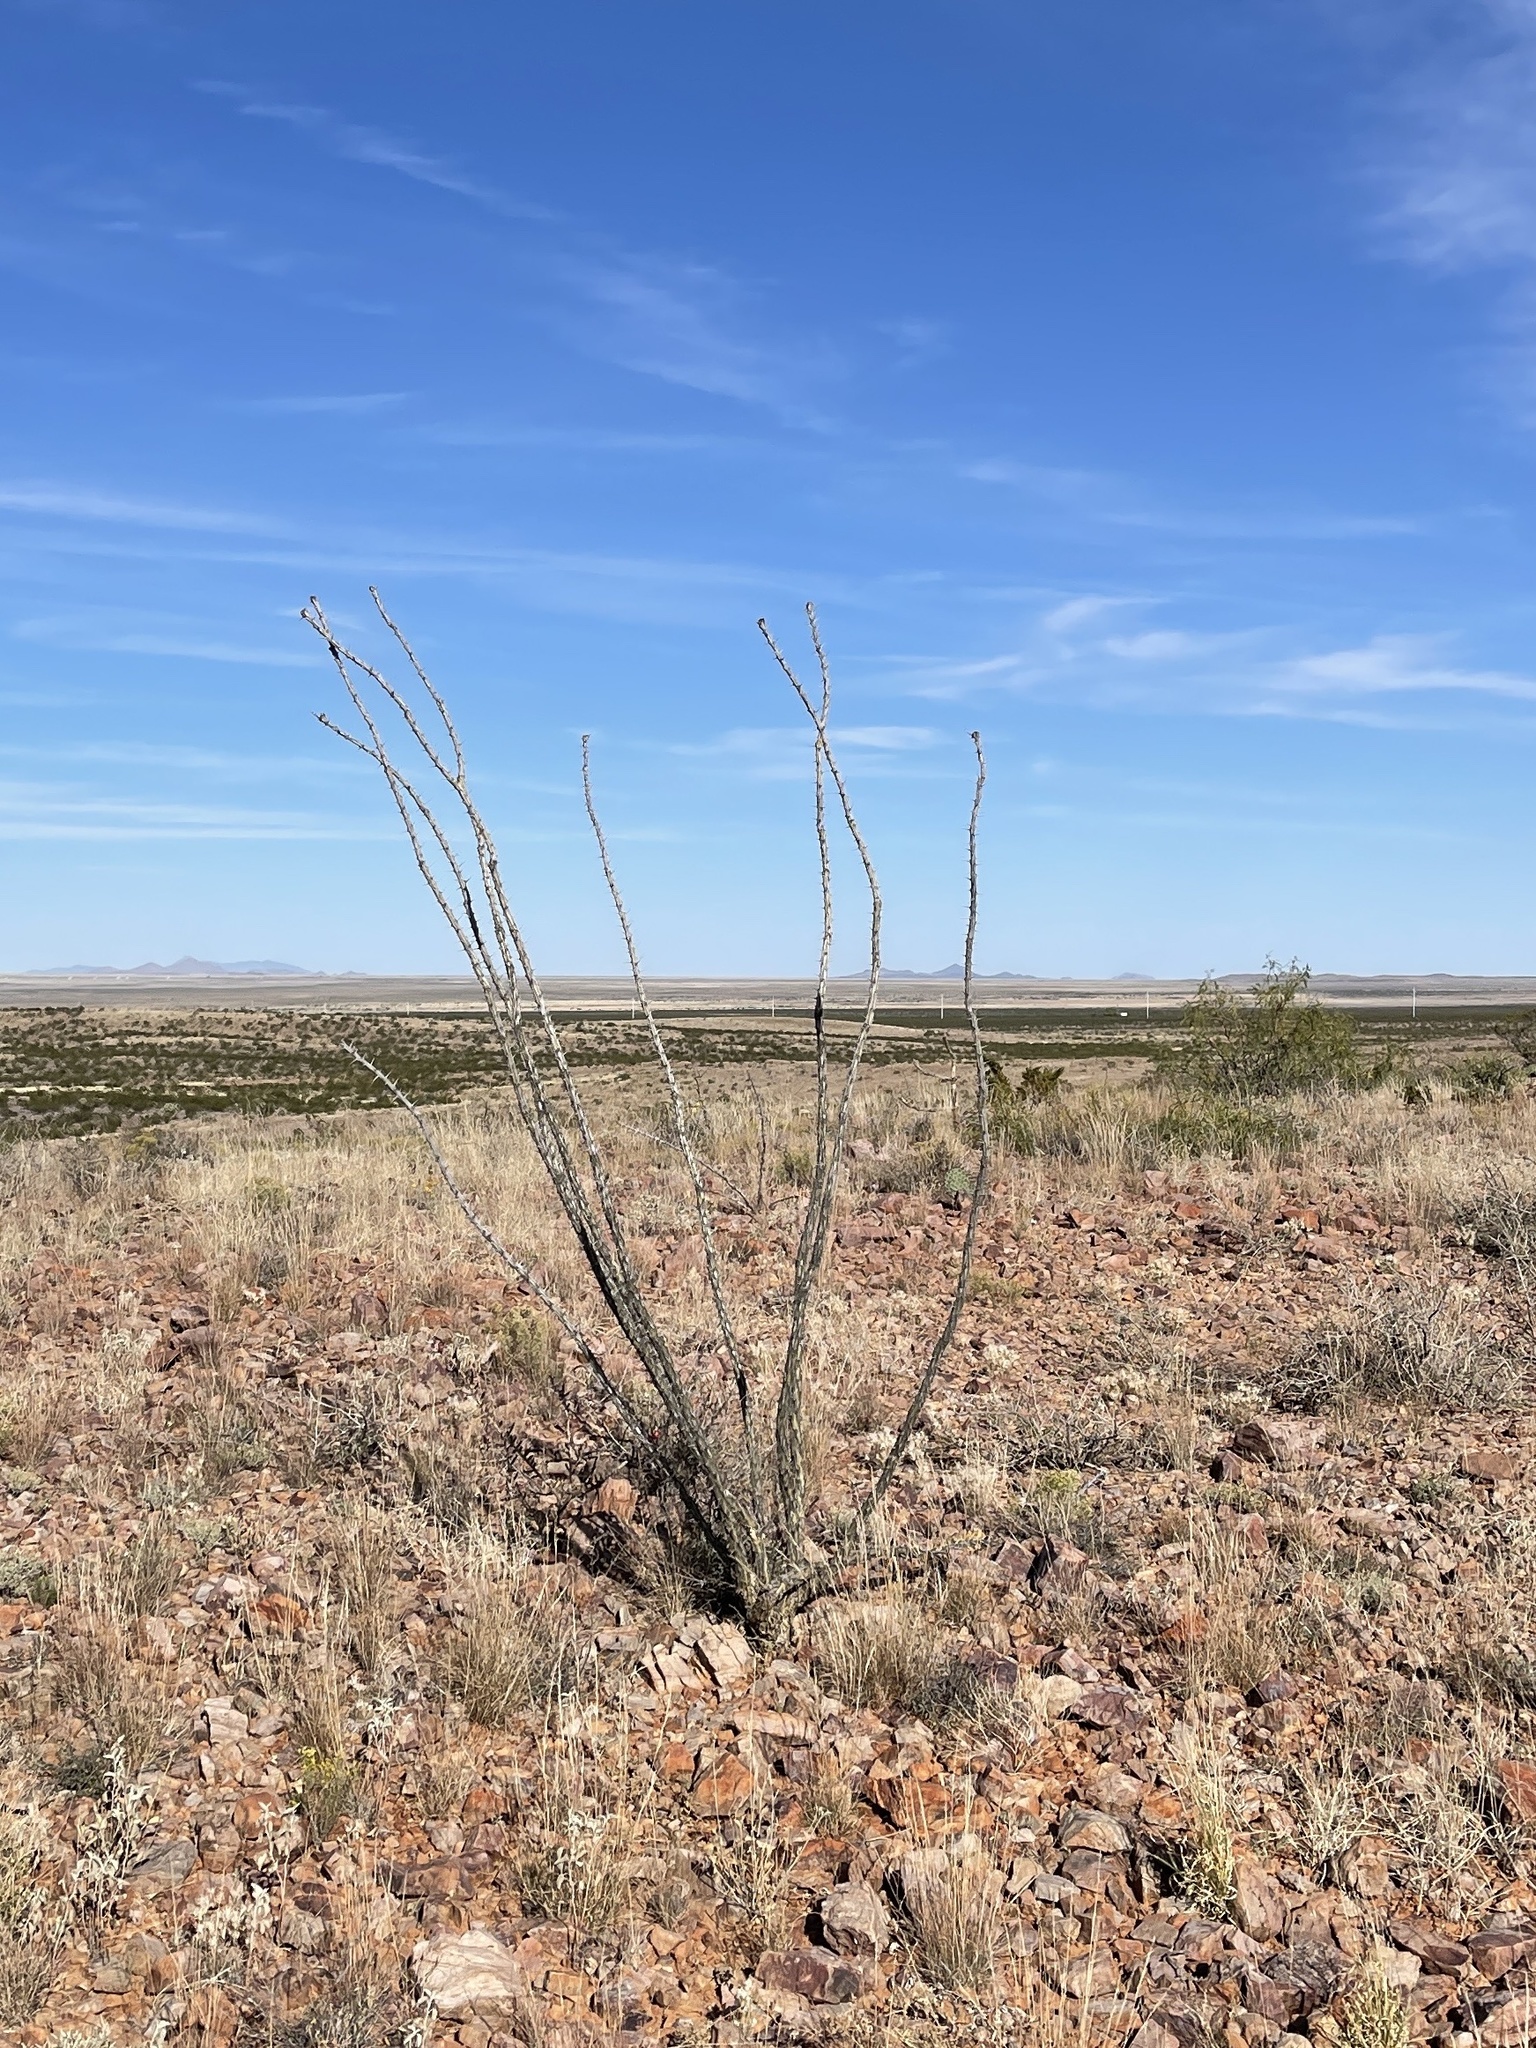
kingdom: Plantae
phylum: Tracheophyta
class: Magnoliopsida
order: Ericales
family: Fouquieriaceae
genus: Fouquieria
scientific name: Fouquieria splendens
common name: Vine-cactus
